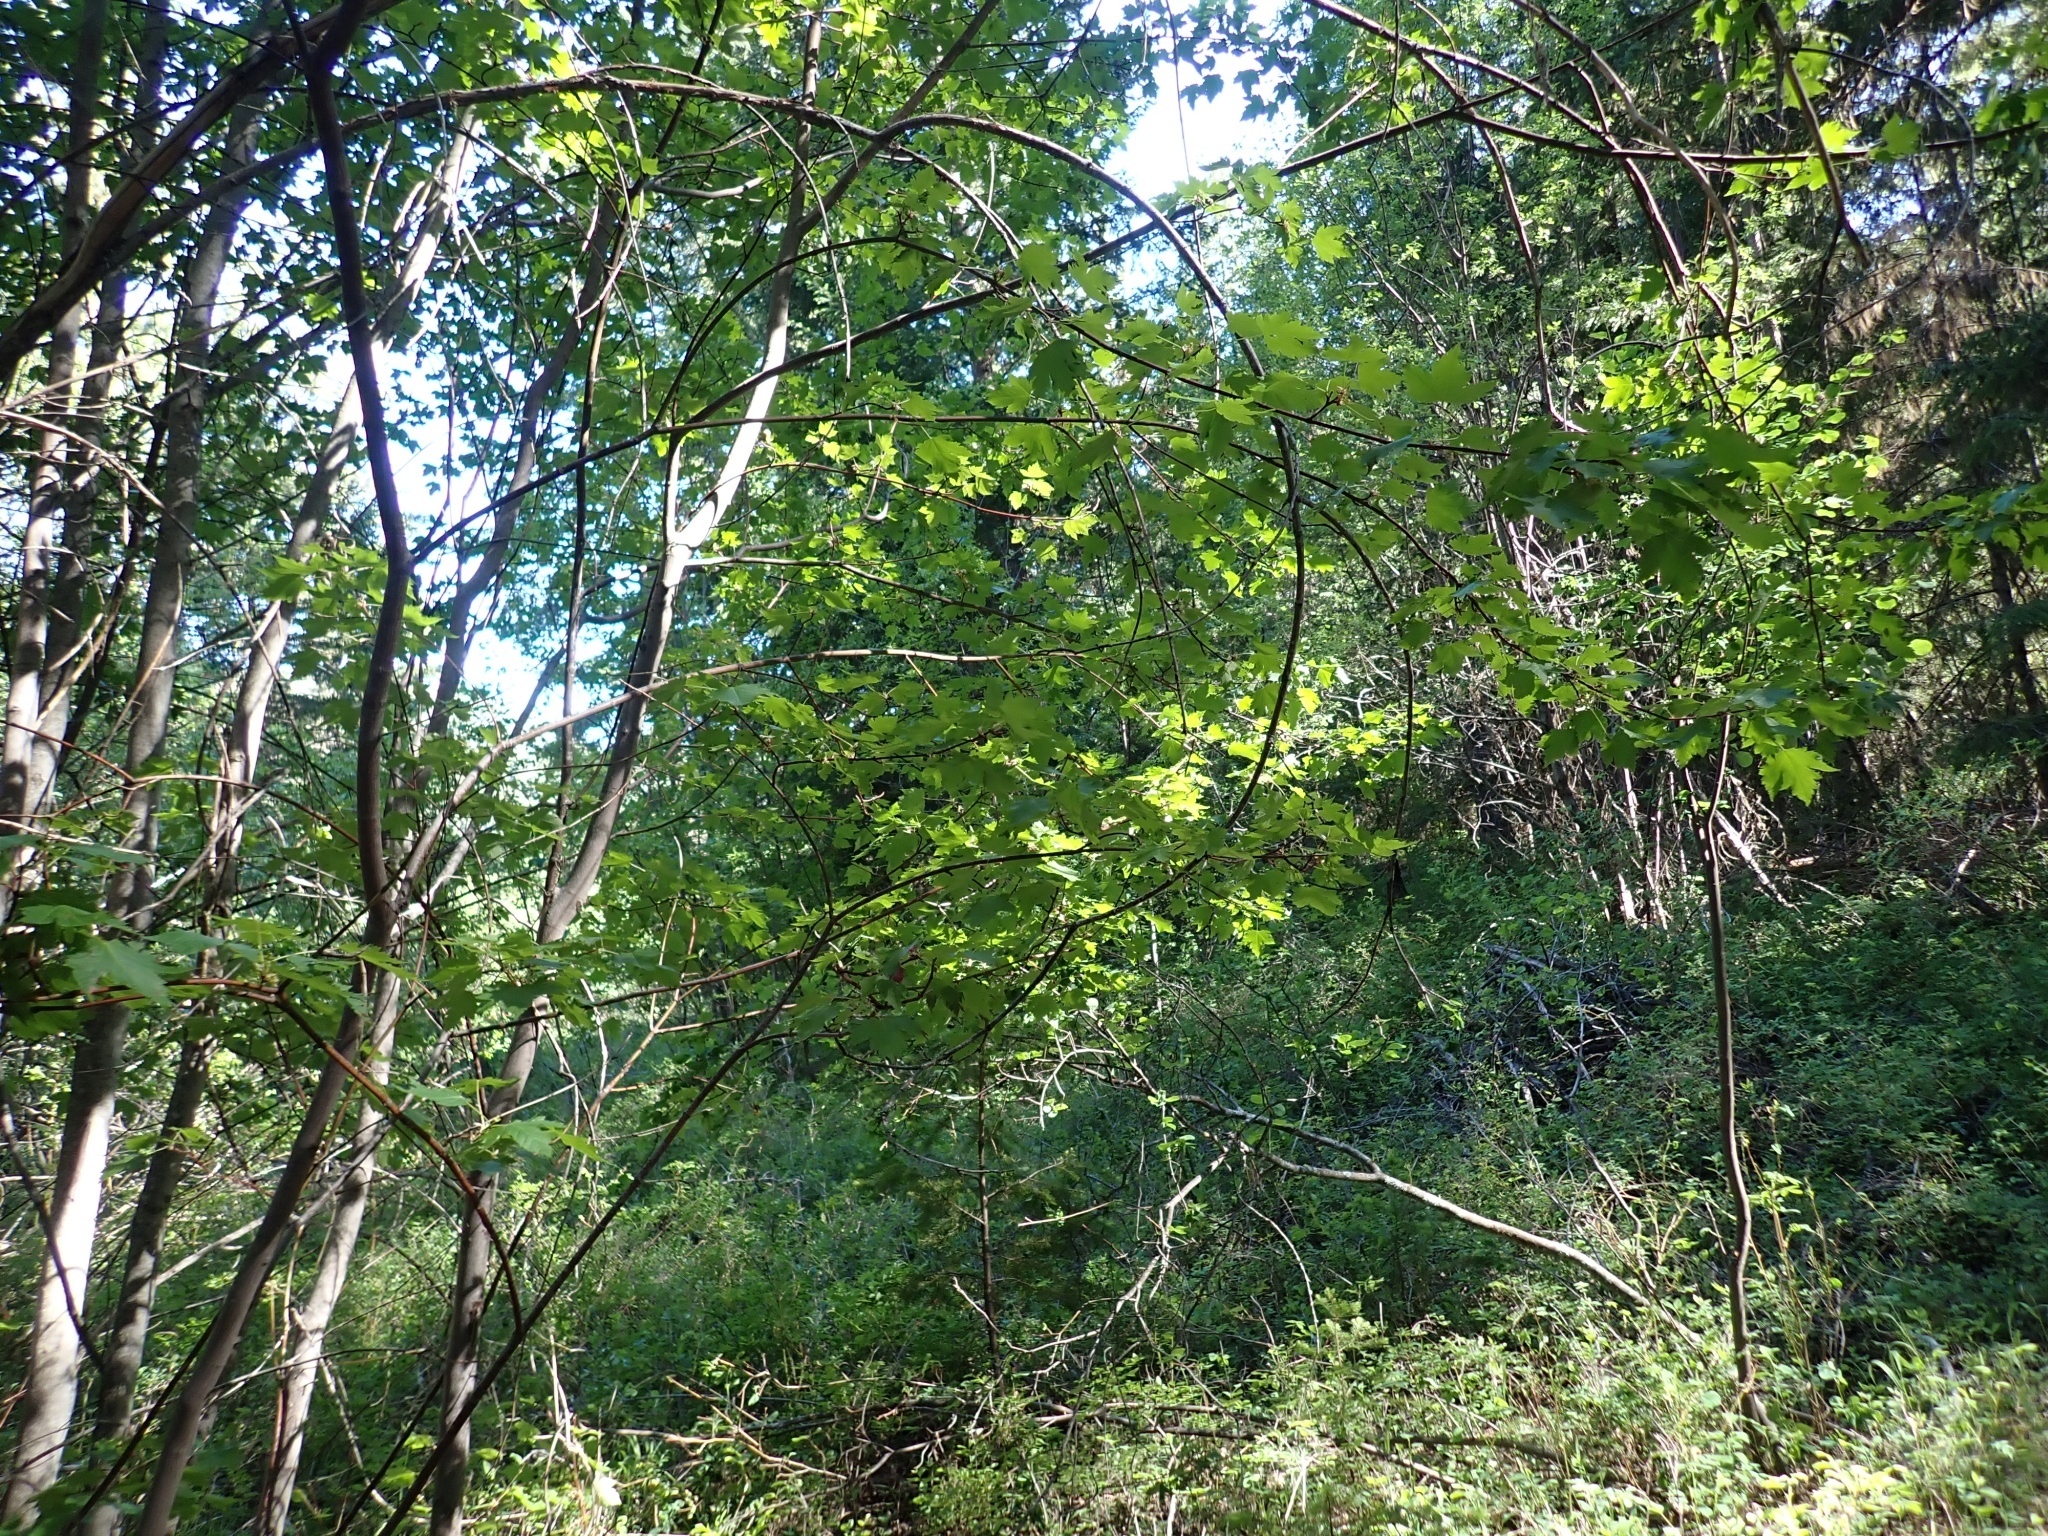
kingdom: Plantae
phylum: Tracheophyta
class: Magnoliopsida
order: Sapindales
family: Sapindaceae
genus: Acer
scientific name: Acer glabrum
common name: Rocky mountain maple
